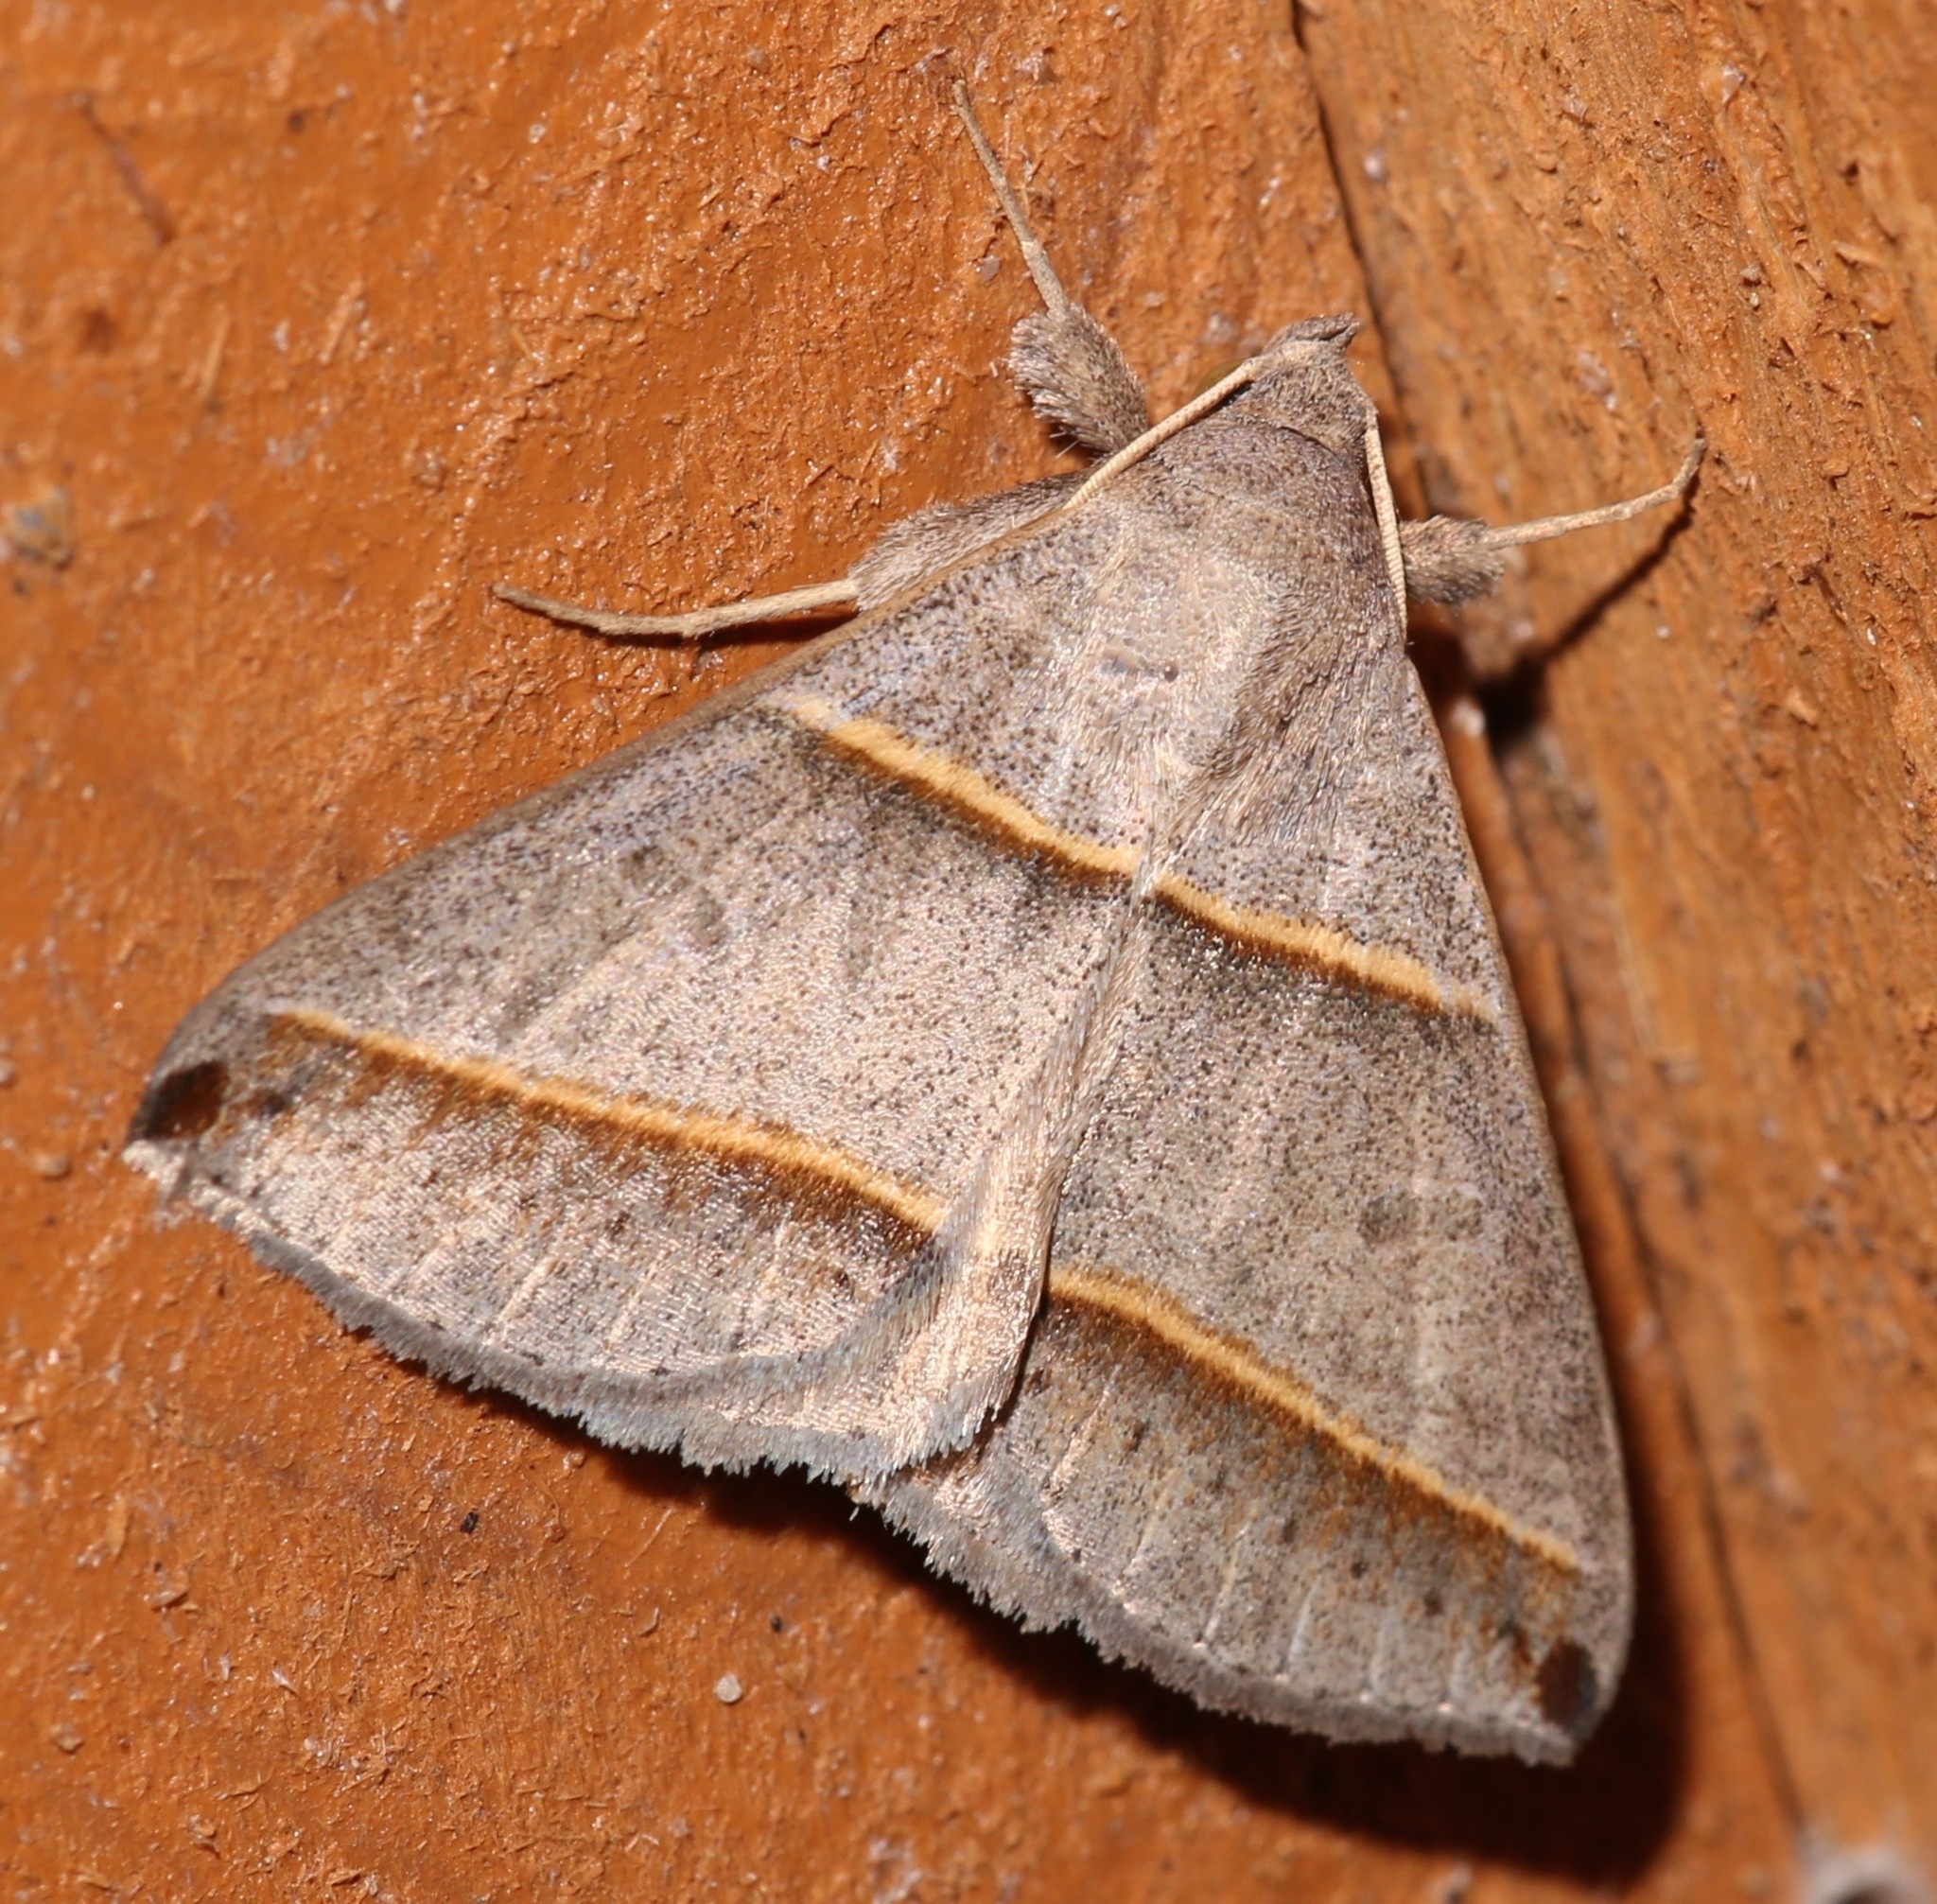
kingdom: Animalia
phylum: Arthropoda
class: Insecta
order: Lepidoptera
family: Erebidae
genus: Ptichodis
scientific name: Ptichodis vinculum
